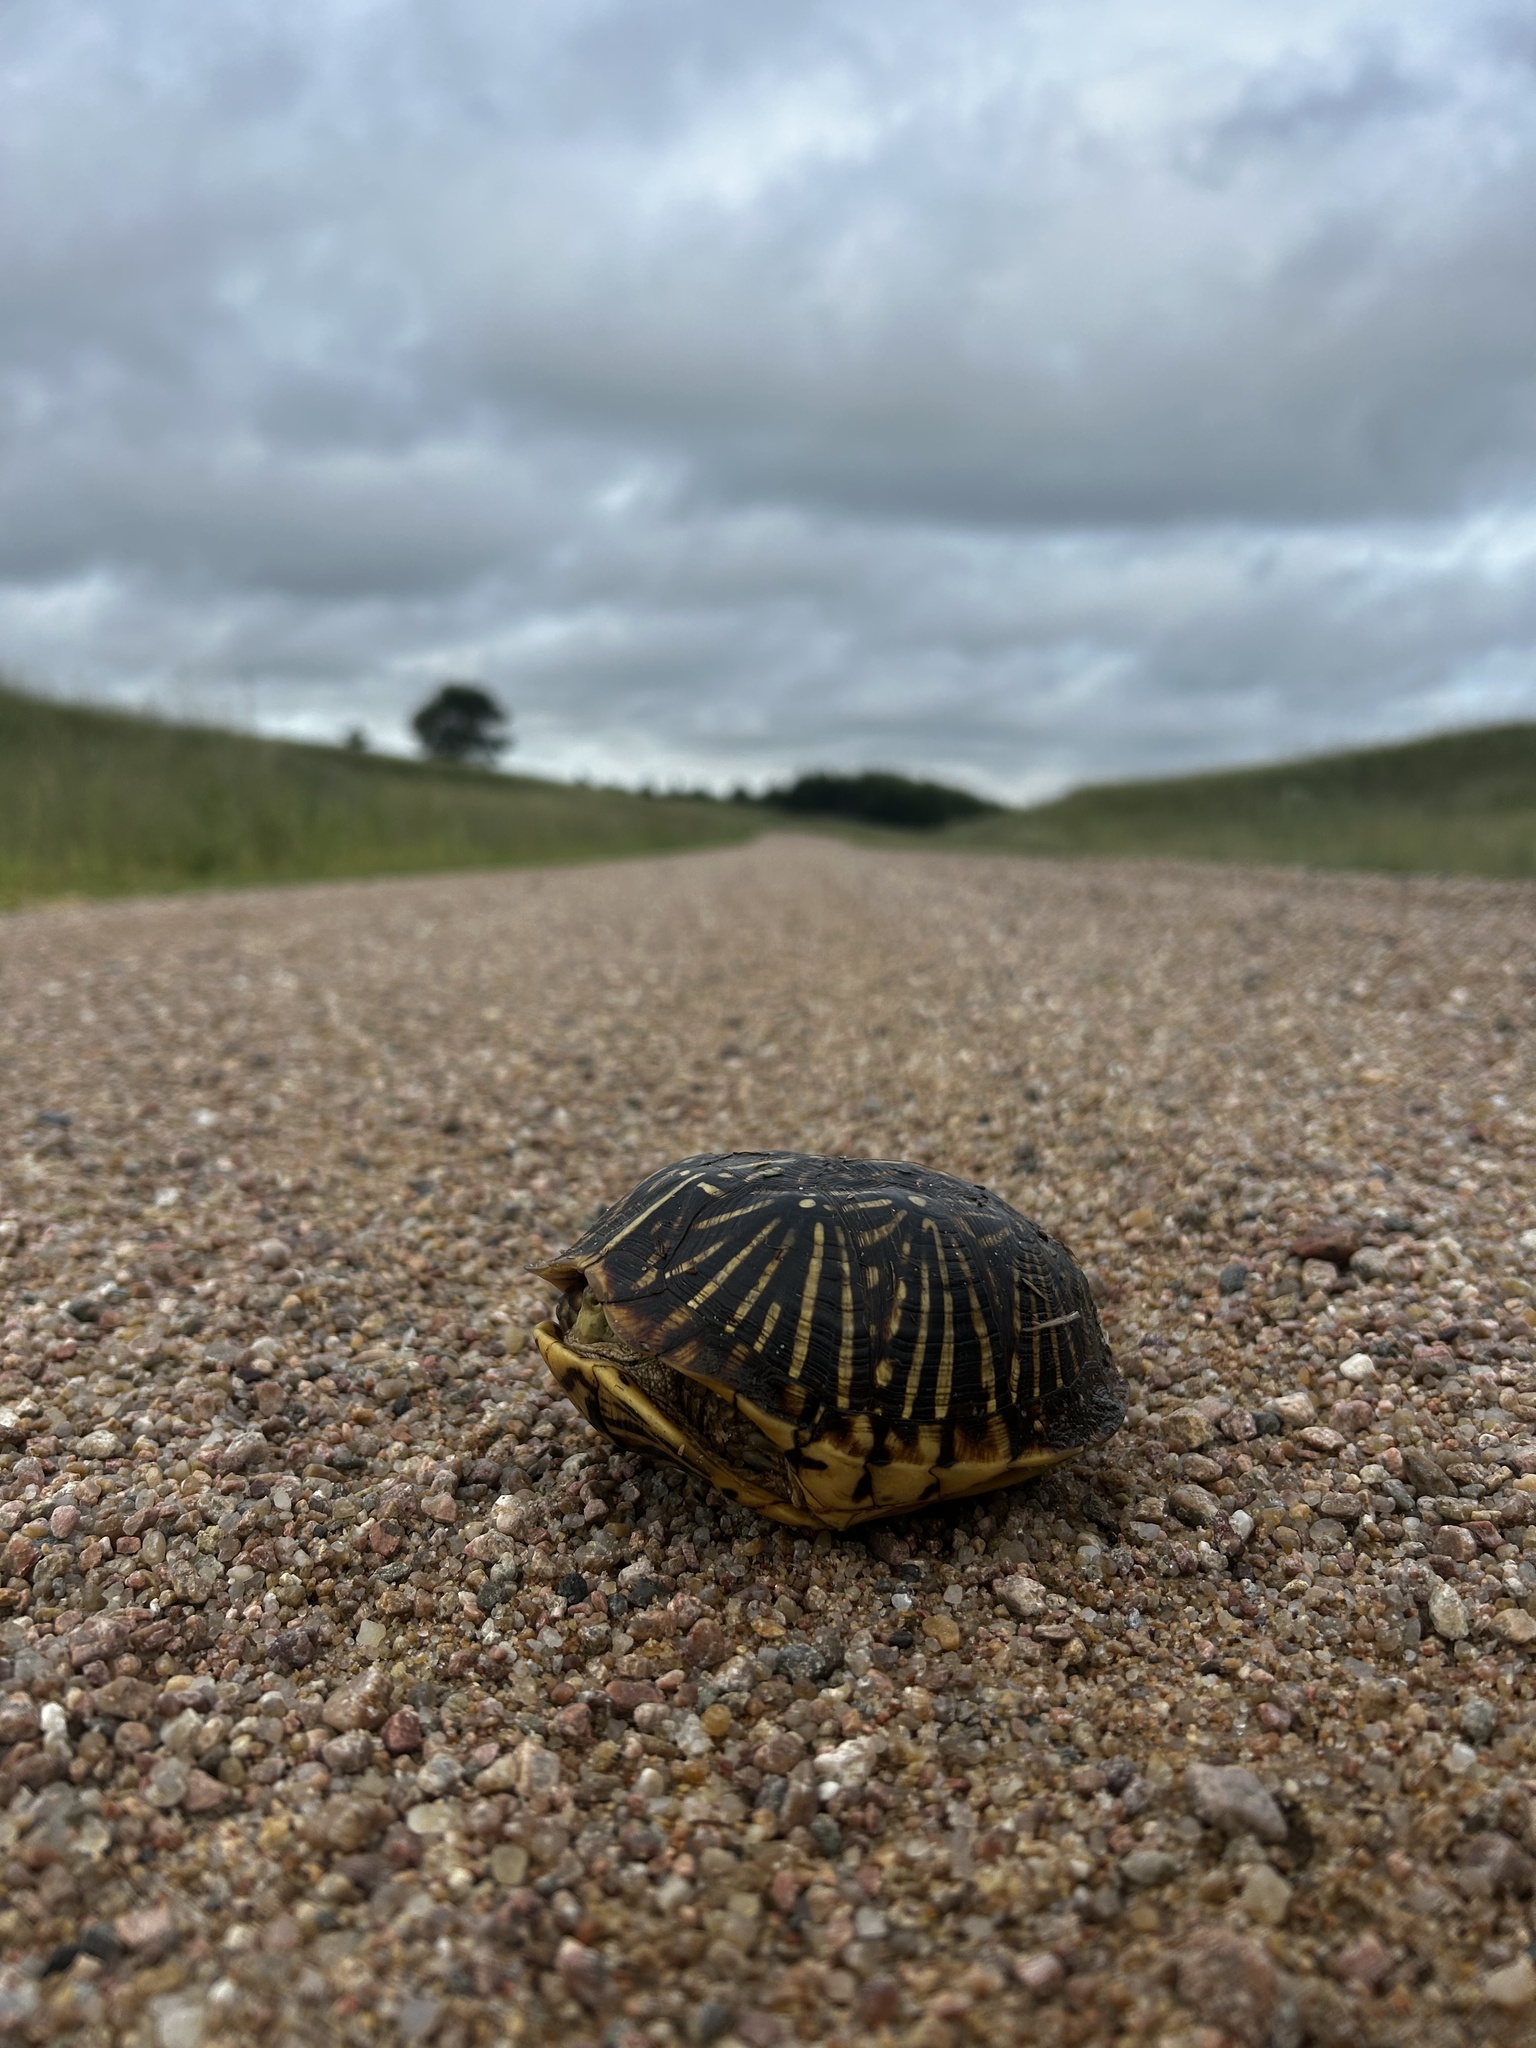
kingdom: Animalia
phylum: Chordata
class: Testudines
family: Emydidae
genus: Terrapene
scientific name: Terrapene ornata
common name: Western box turtle
